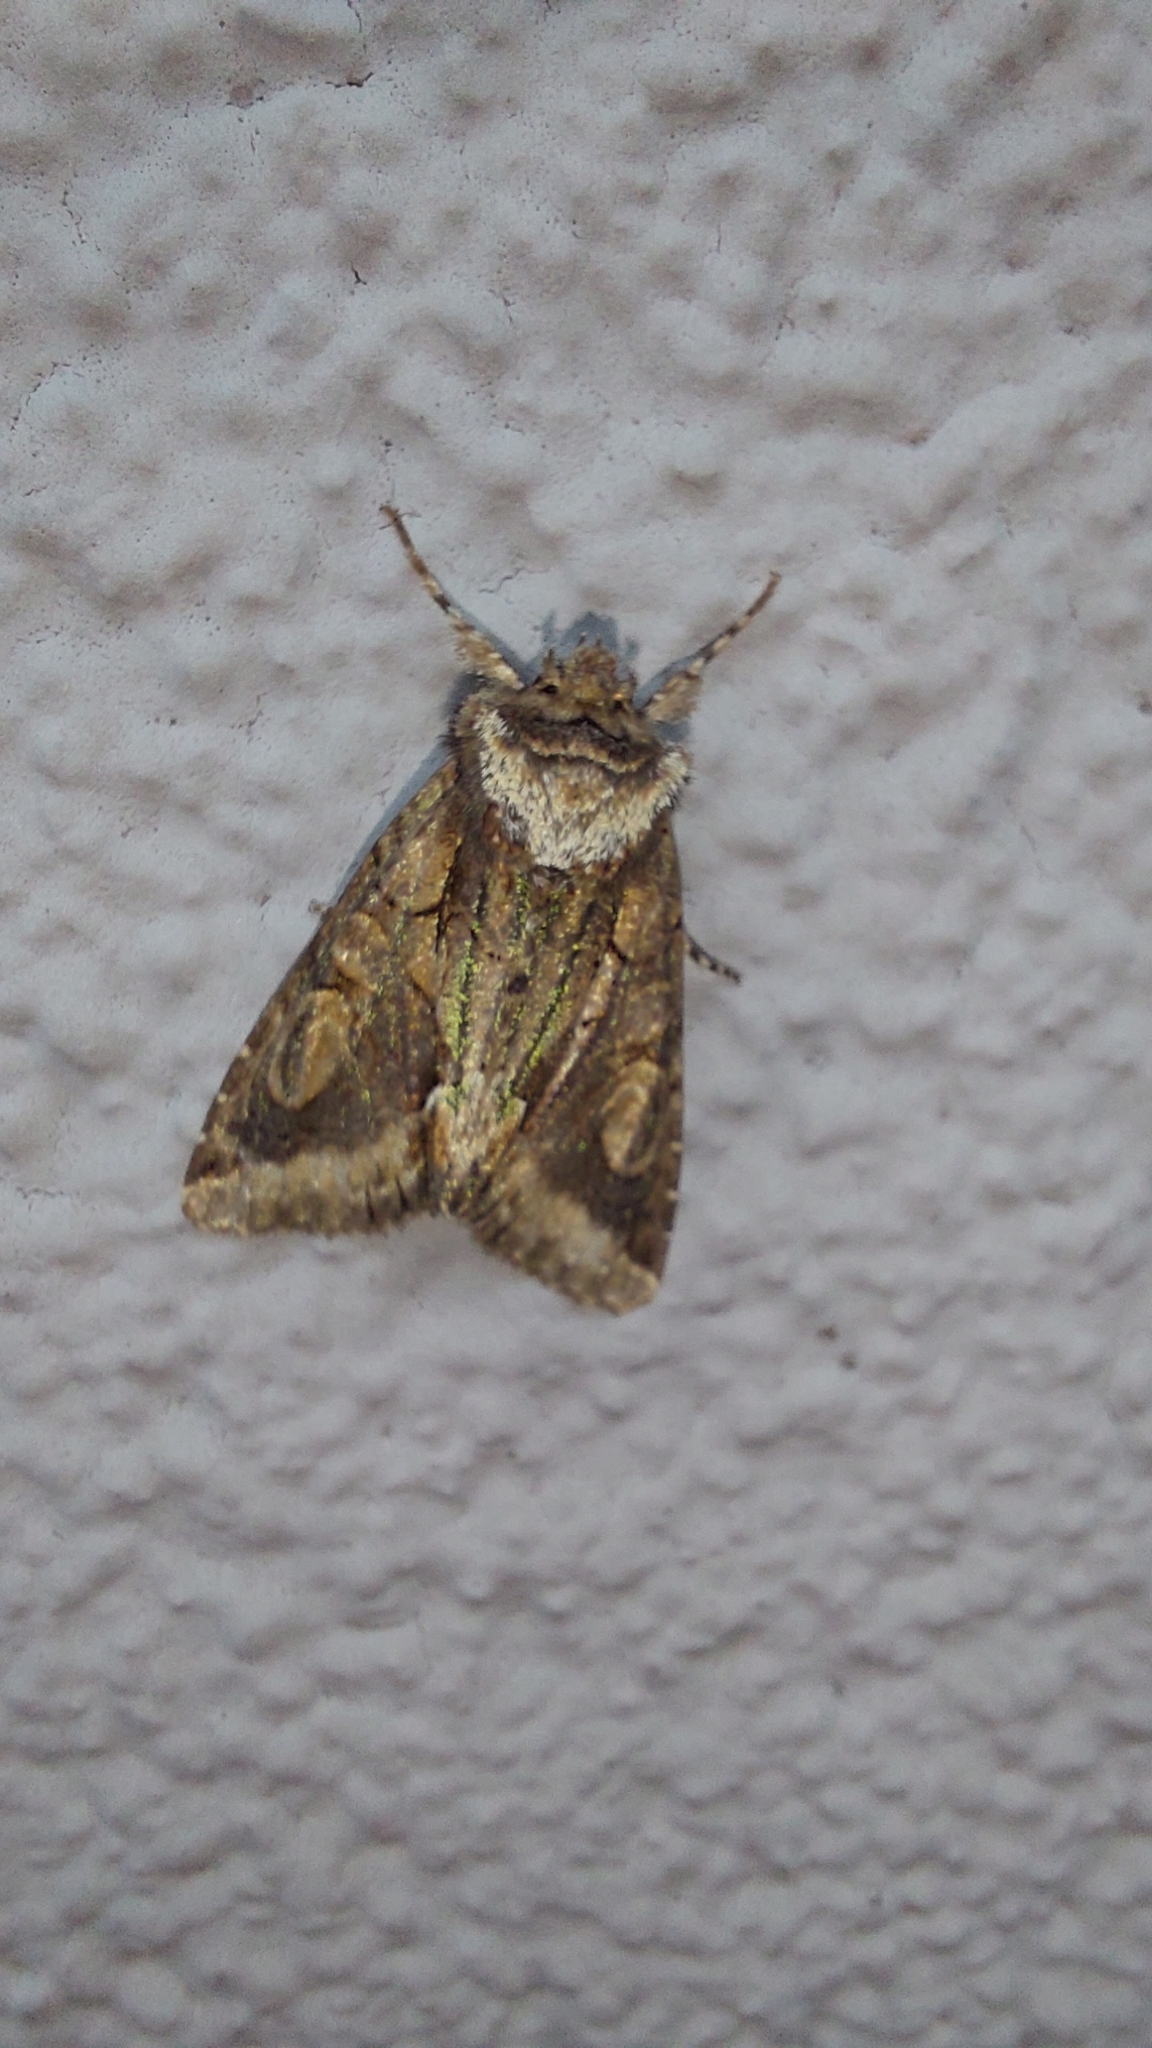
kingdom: Animalia
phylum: Arthropoda
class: Insecta
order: Lepidoptera
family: Noctuidae
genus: Allophyes
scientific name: Allophyes oxyacanthae
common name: Green-brindled crescent
